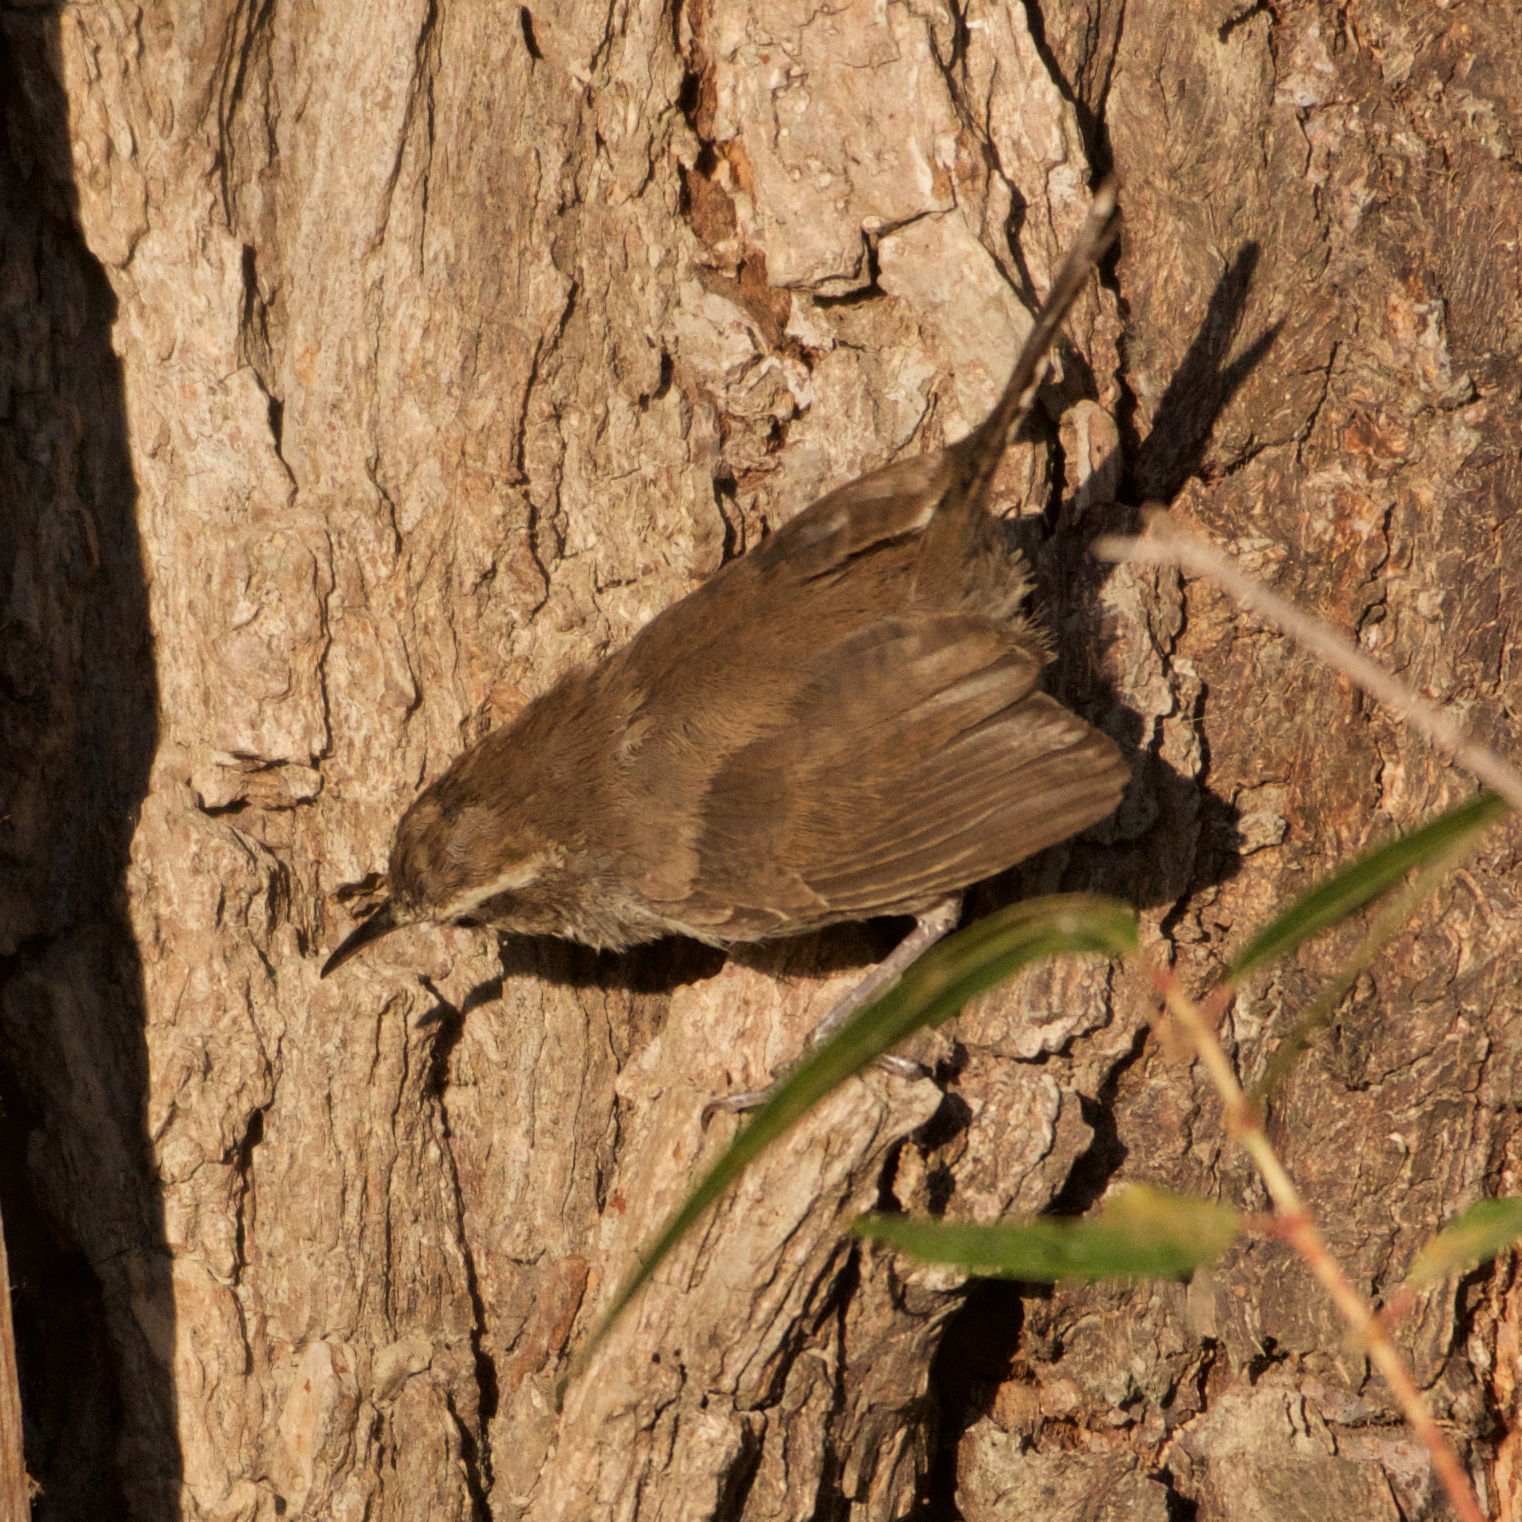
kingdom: Animalia
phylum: Chordata
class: Aves
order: Passeriformes
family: Troglodytidae
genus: Thryomanes
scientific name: Thryomanes bewickii
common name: Bewick's wren
